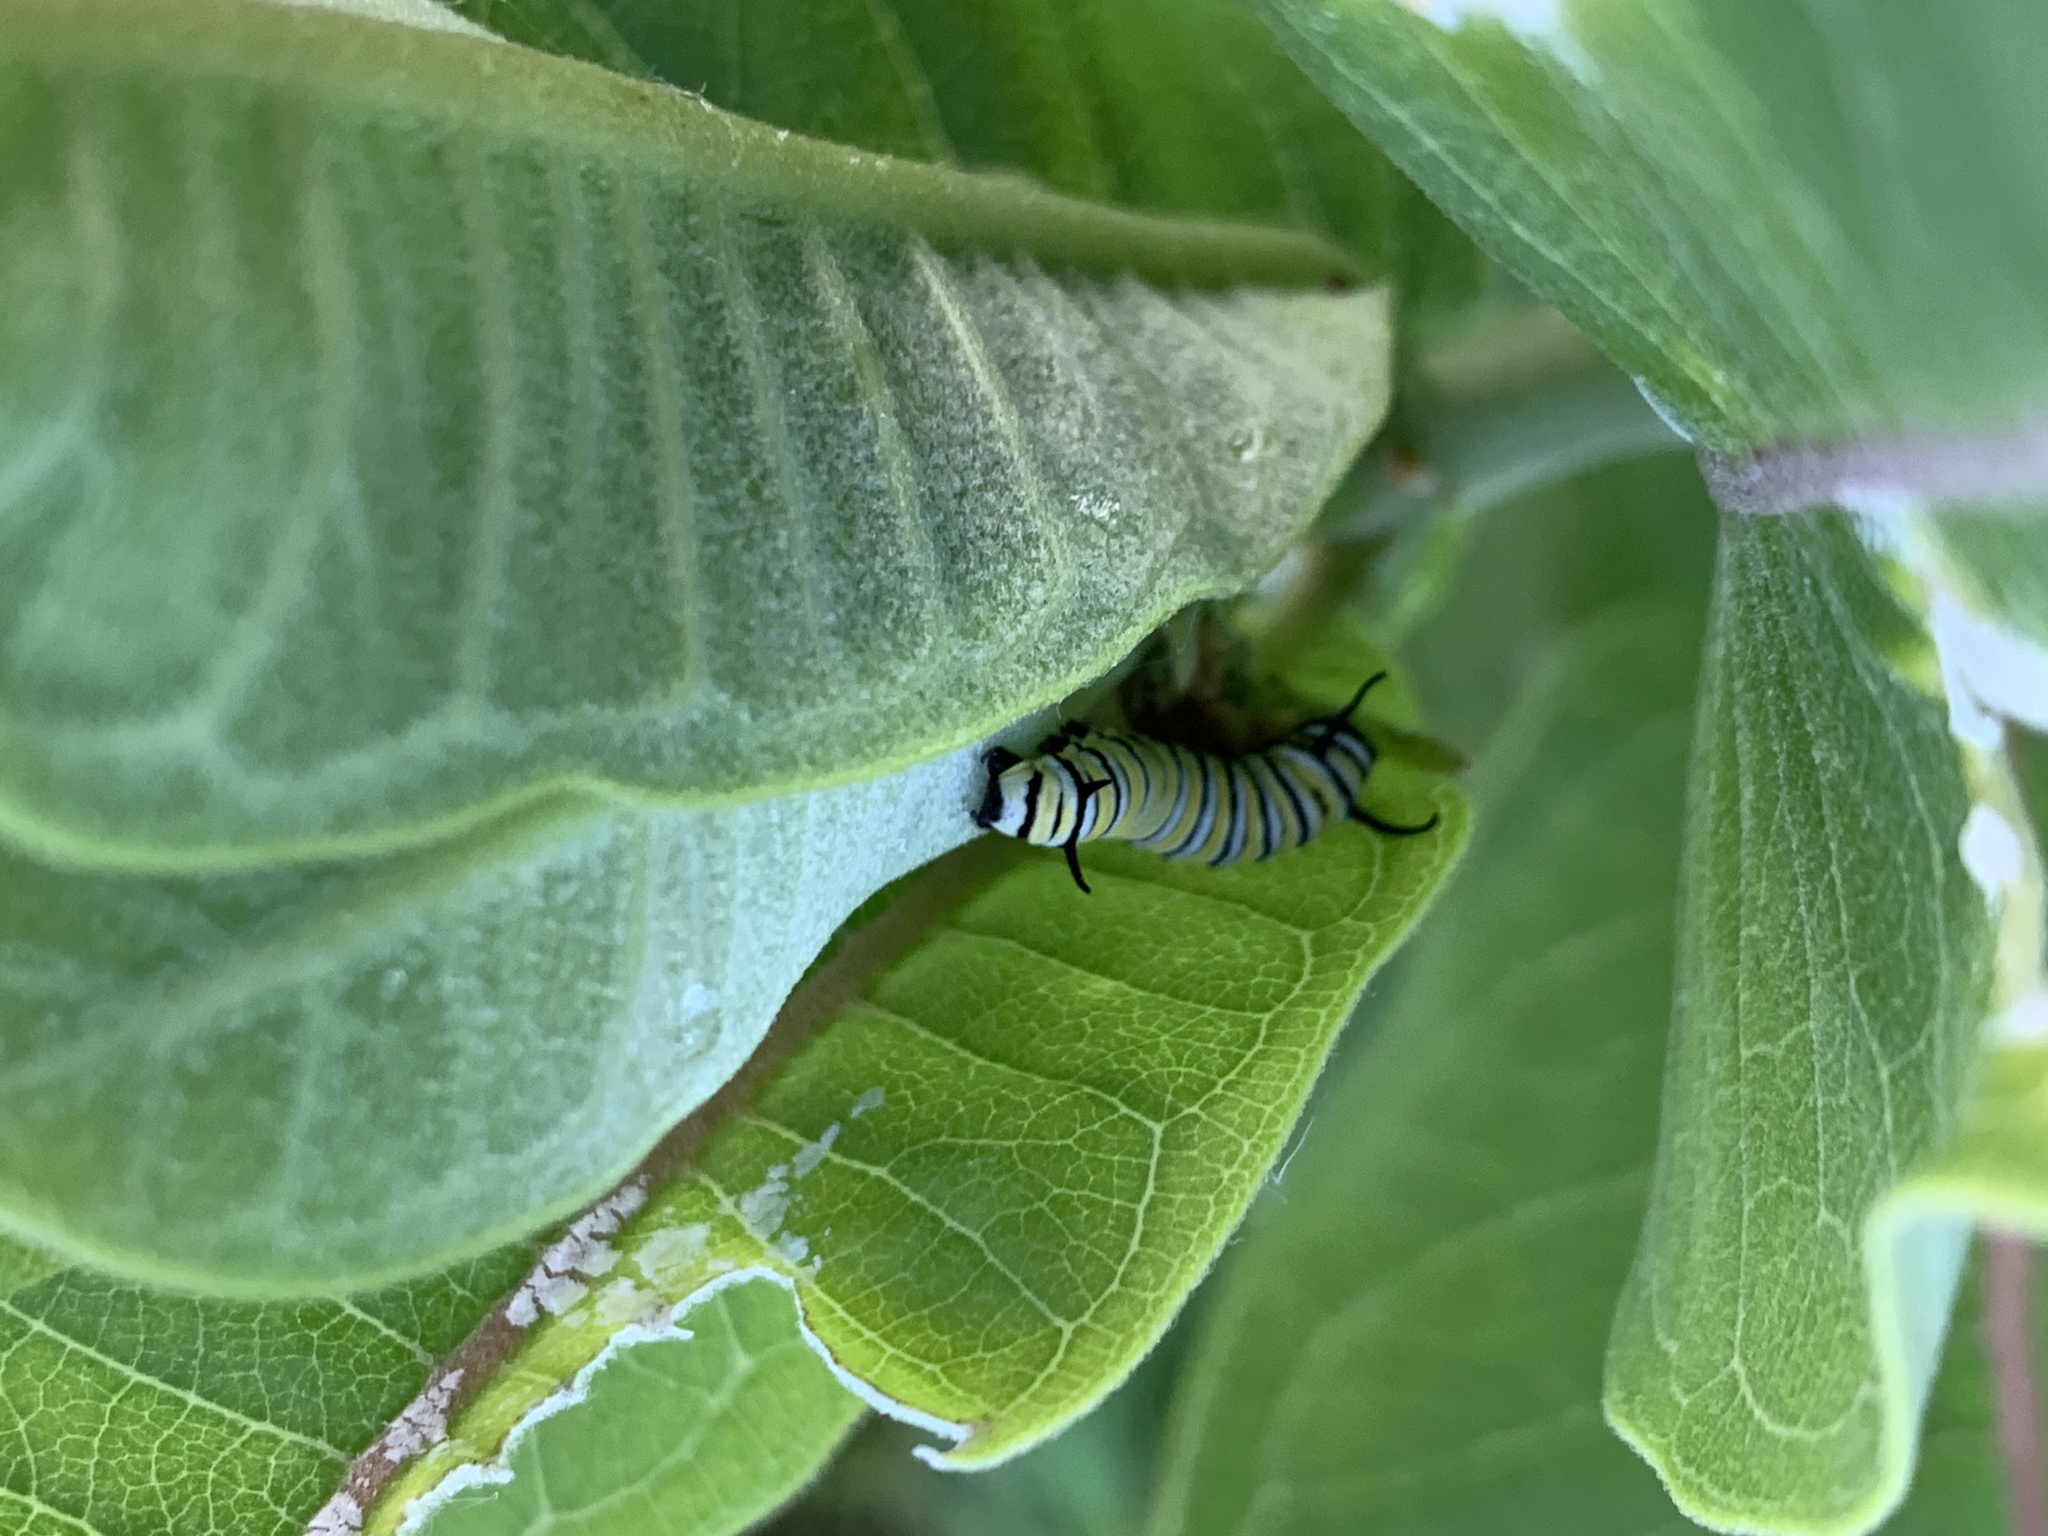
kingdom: Animalia
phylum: Arthropoda
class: Insecta
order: Lepidoptera
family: Nymphalidae
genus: Danaus
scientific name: Danaus plexippus
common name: Monarch
